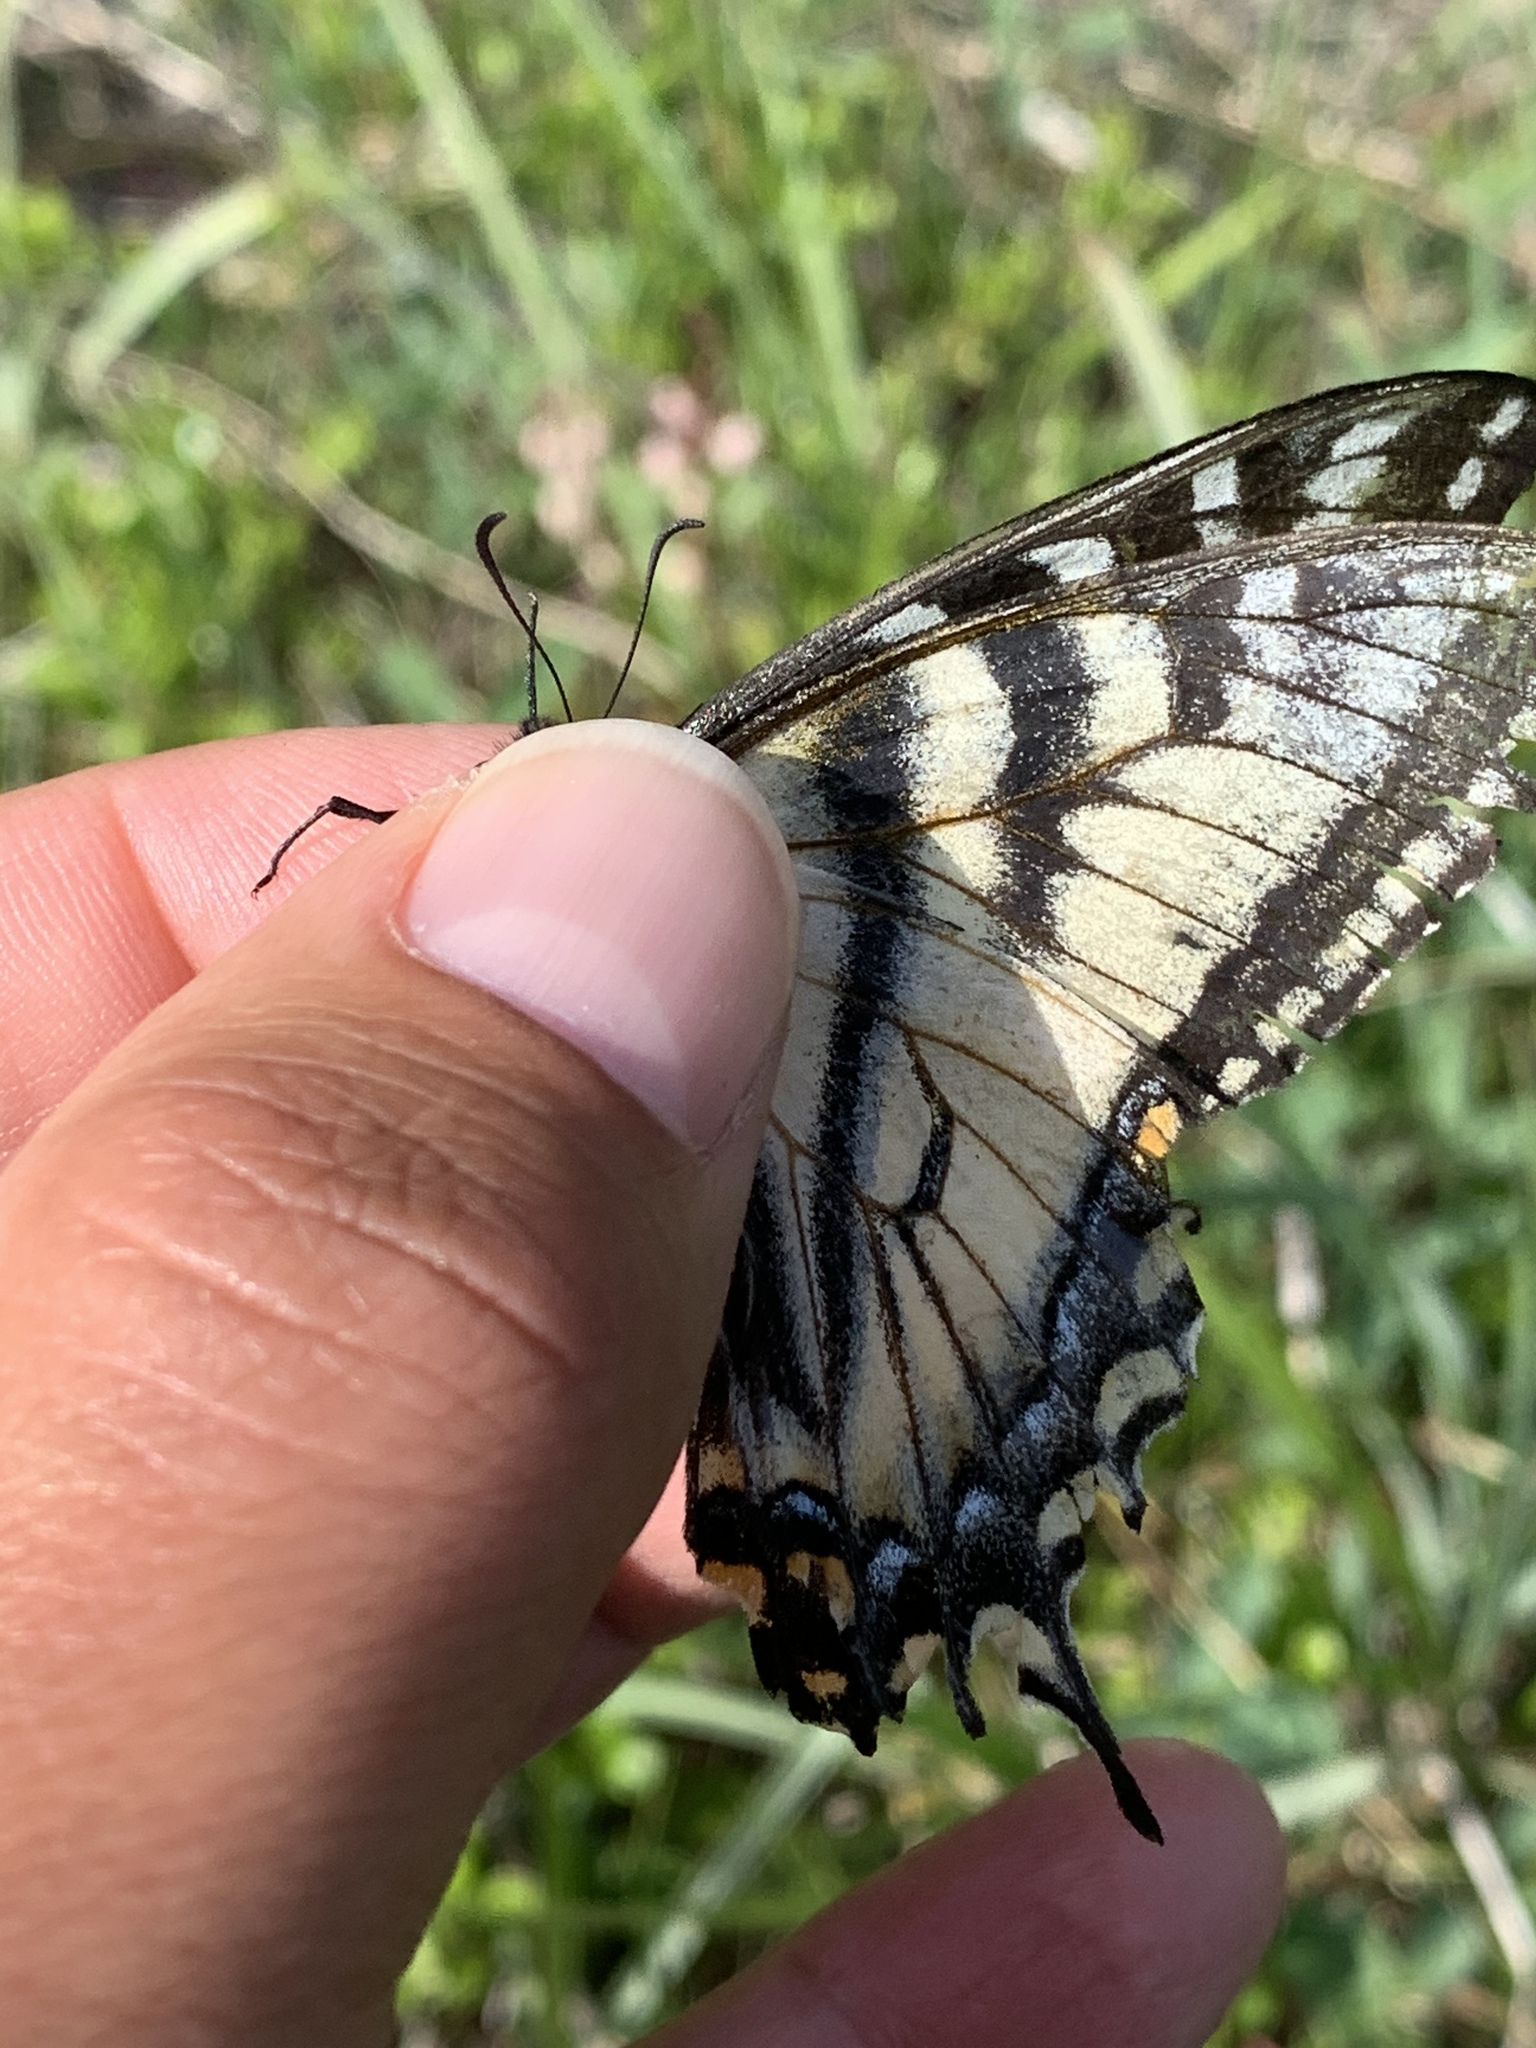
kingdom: Animalia
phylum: Arthropoda
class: Insecta
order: Lepidoptera
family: Papilionidae
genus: Papilio
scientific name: Papilio canadensis
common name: Canadian tiger swallowtail
